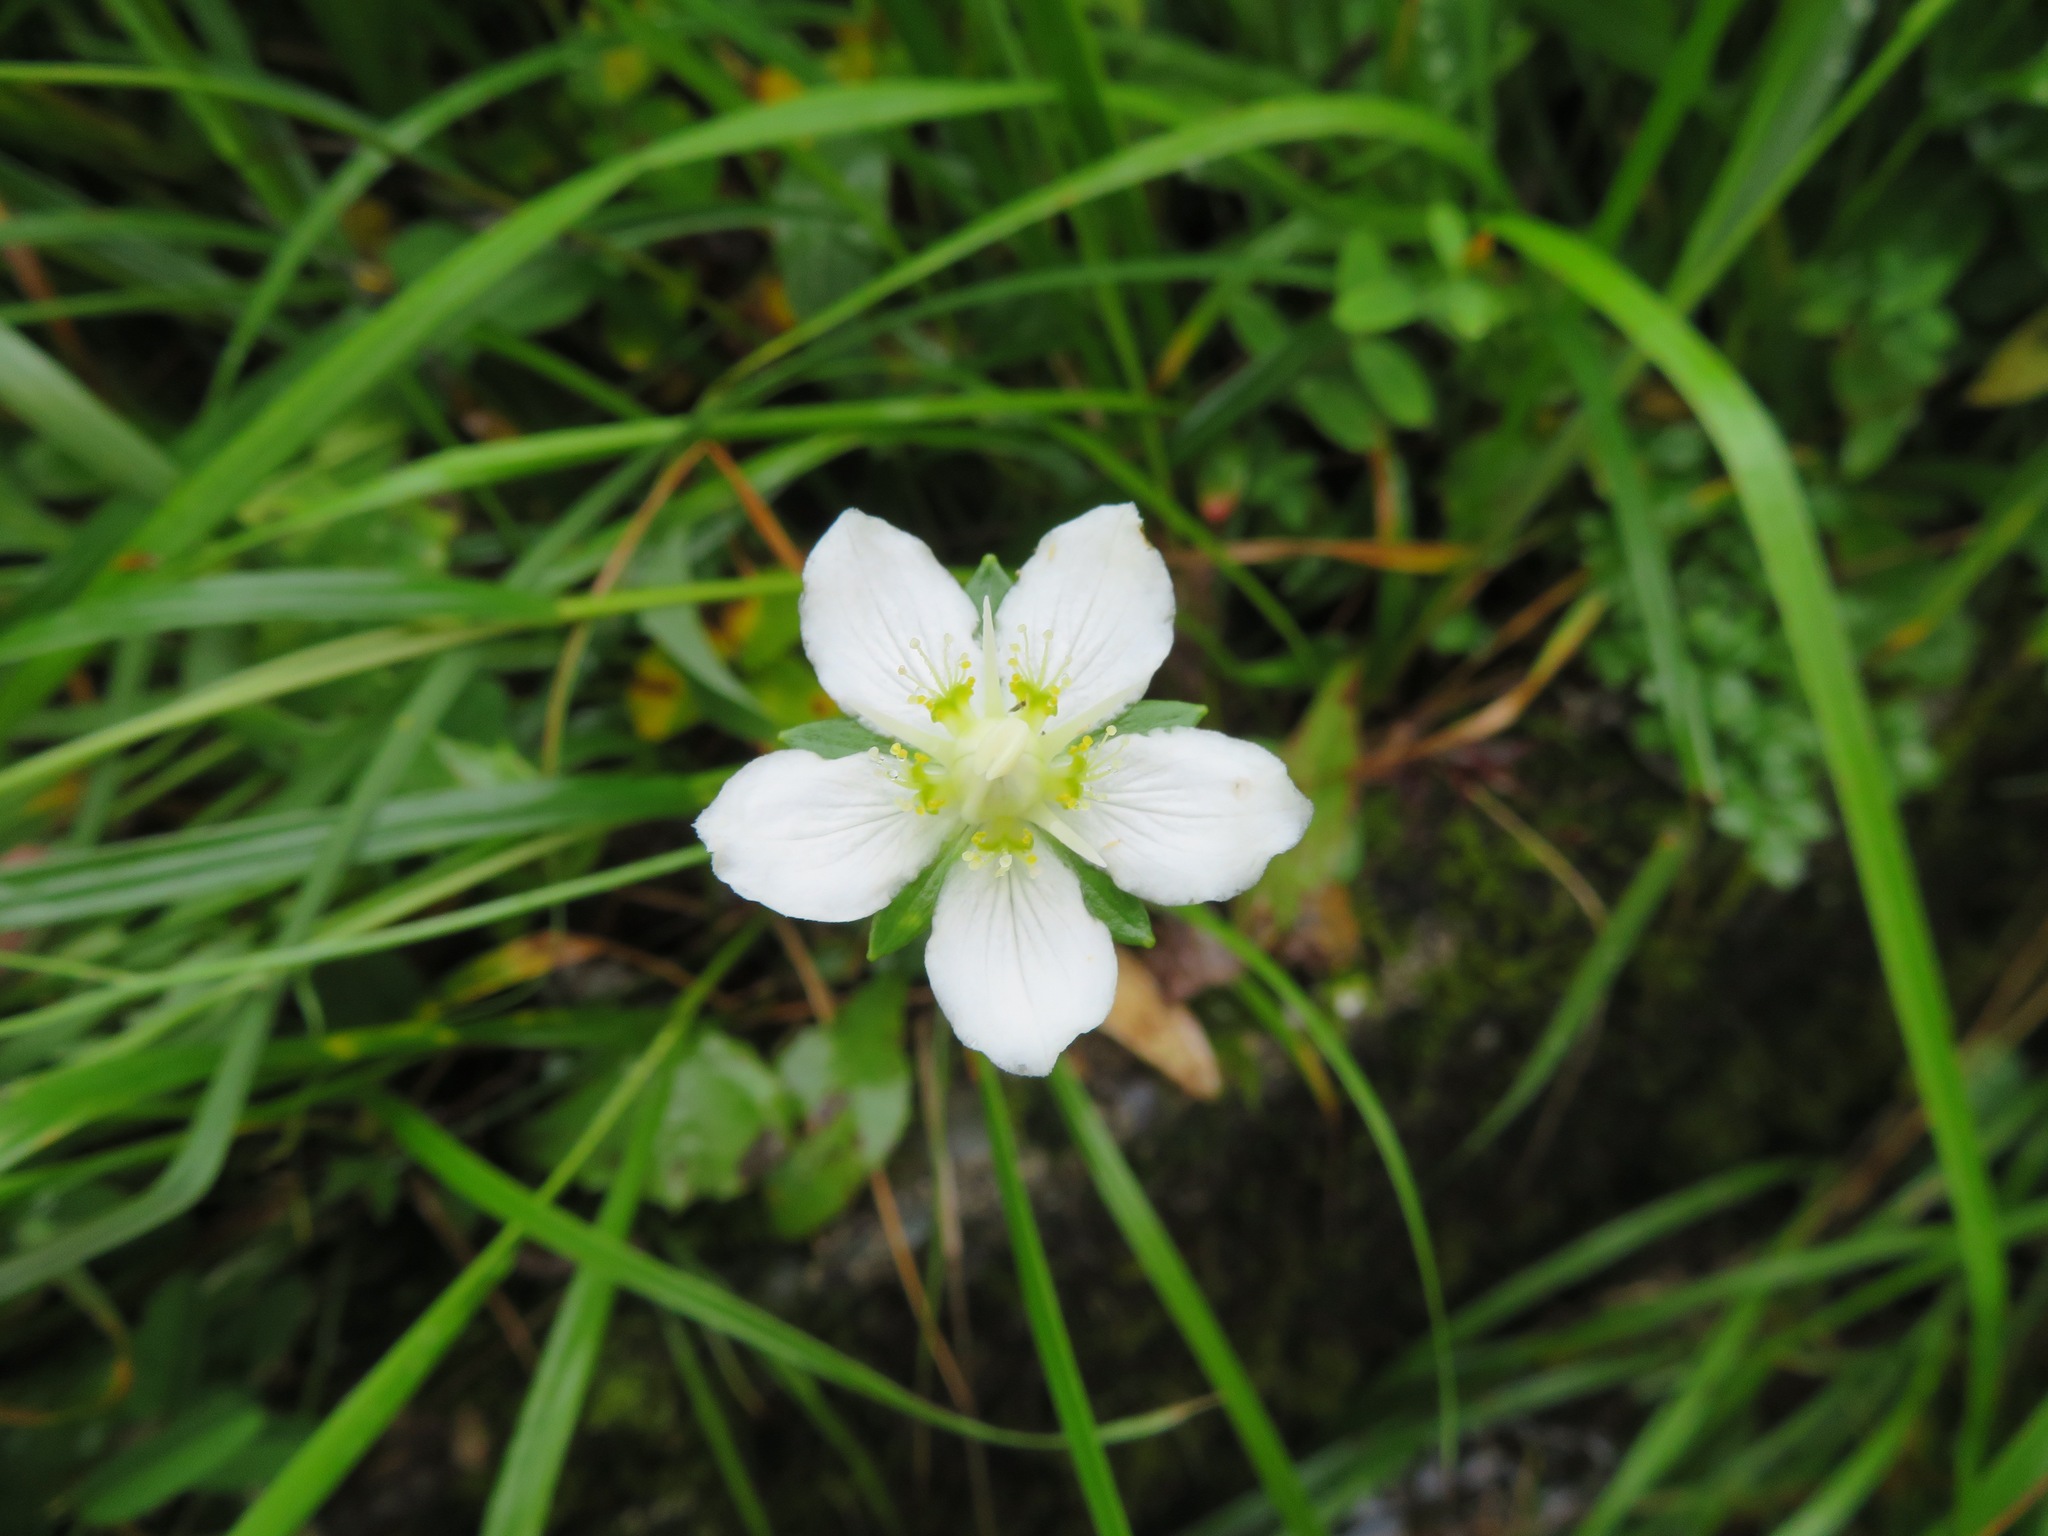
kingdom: Plantae
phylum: Tracheophyta
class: Magnoliopsida
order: Celastrales
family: Parnassiaceae
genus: Parnassia
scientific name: Parnassia palustris
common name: Grass-of-parnassus
